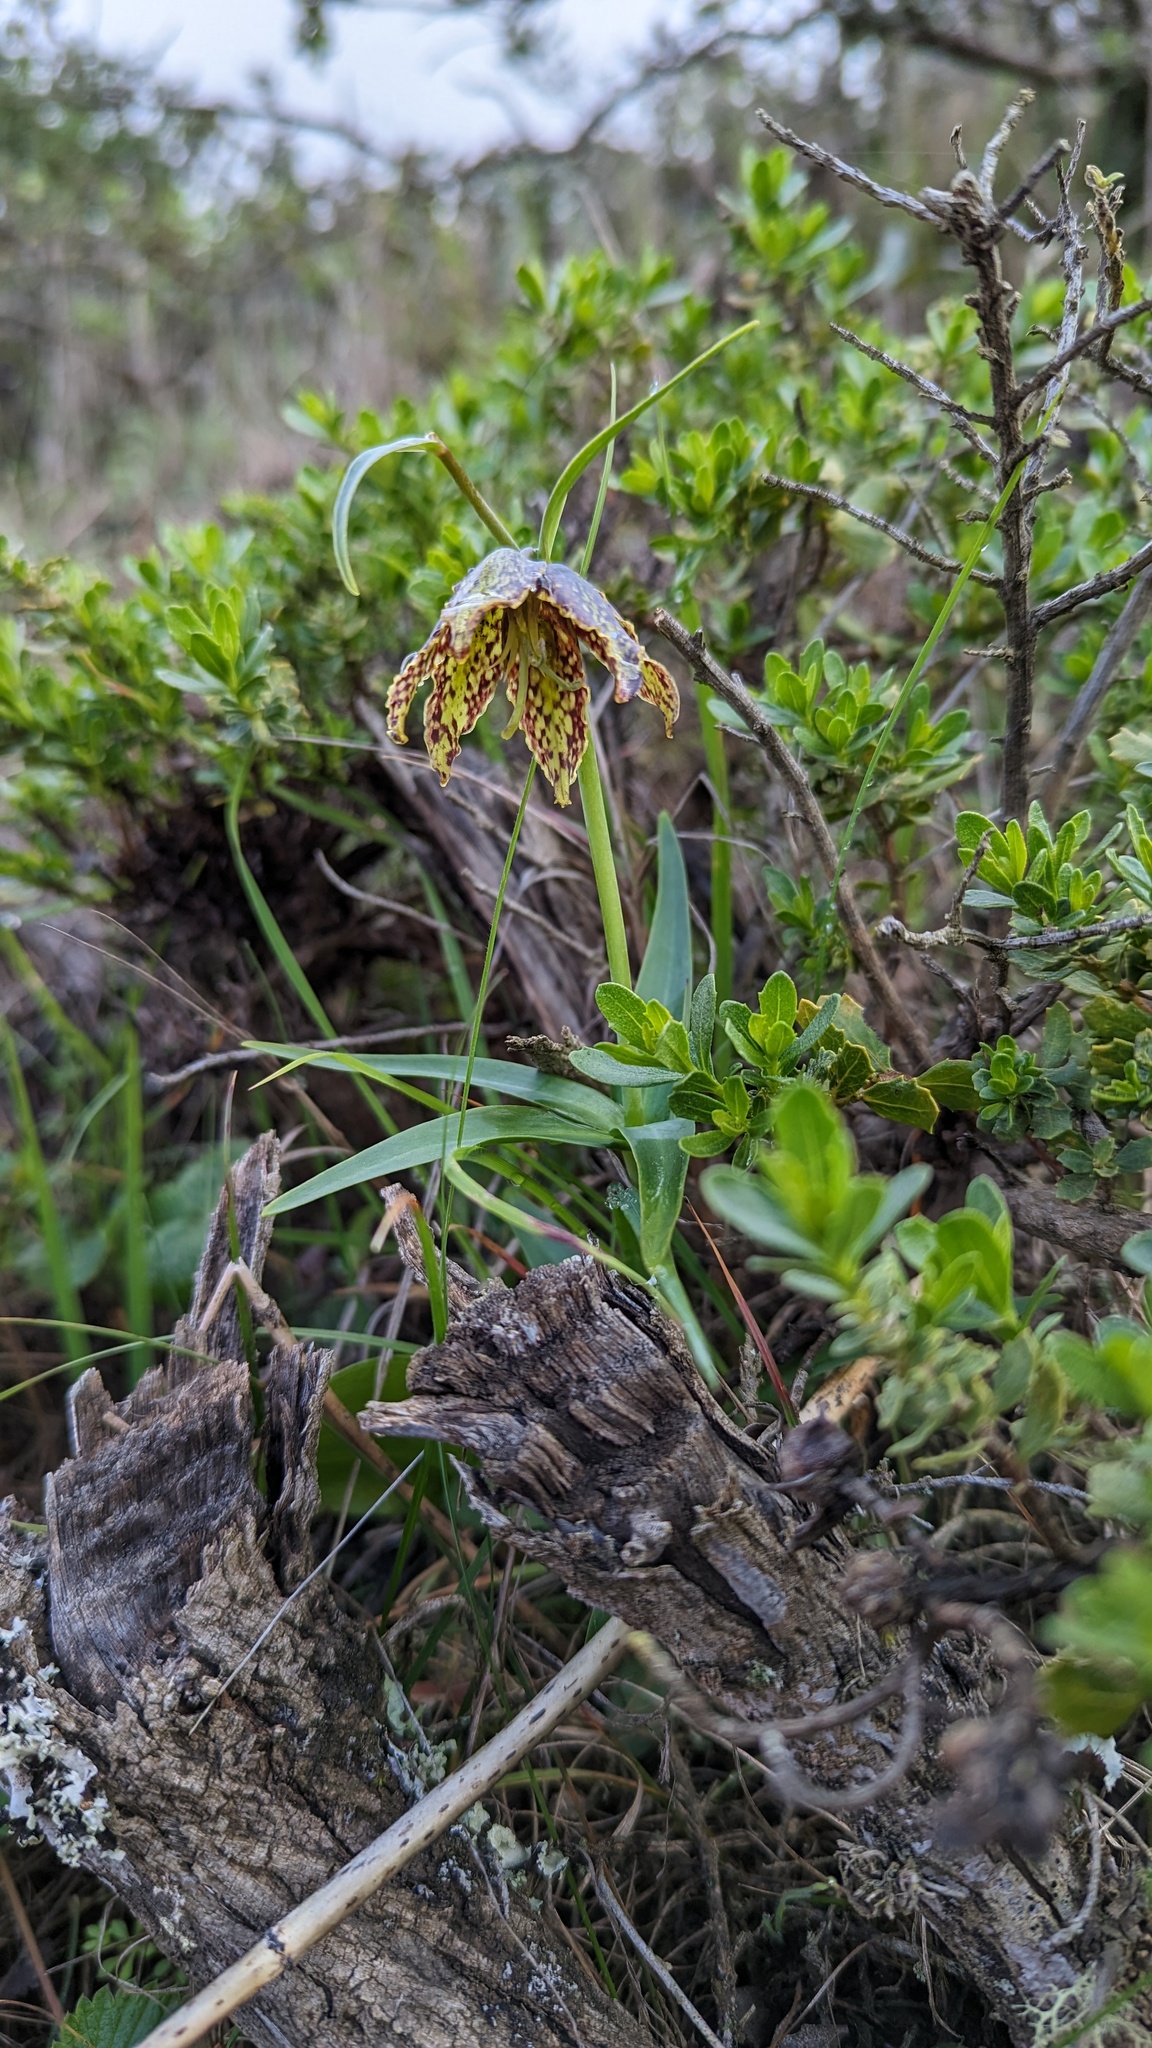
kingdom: Plantae
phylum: Tracheophyta
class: Liliopsida
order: Liliales
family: Liliaceae
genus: Fritillaria
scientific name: Fritillaria affinis
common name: Ojai fritillary
